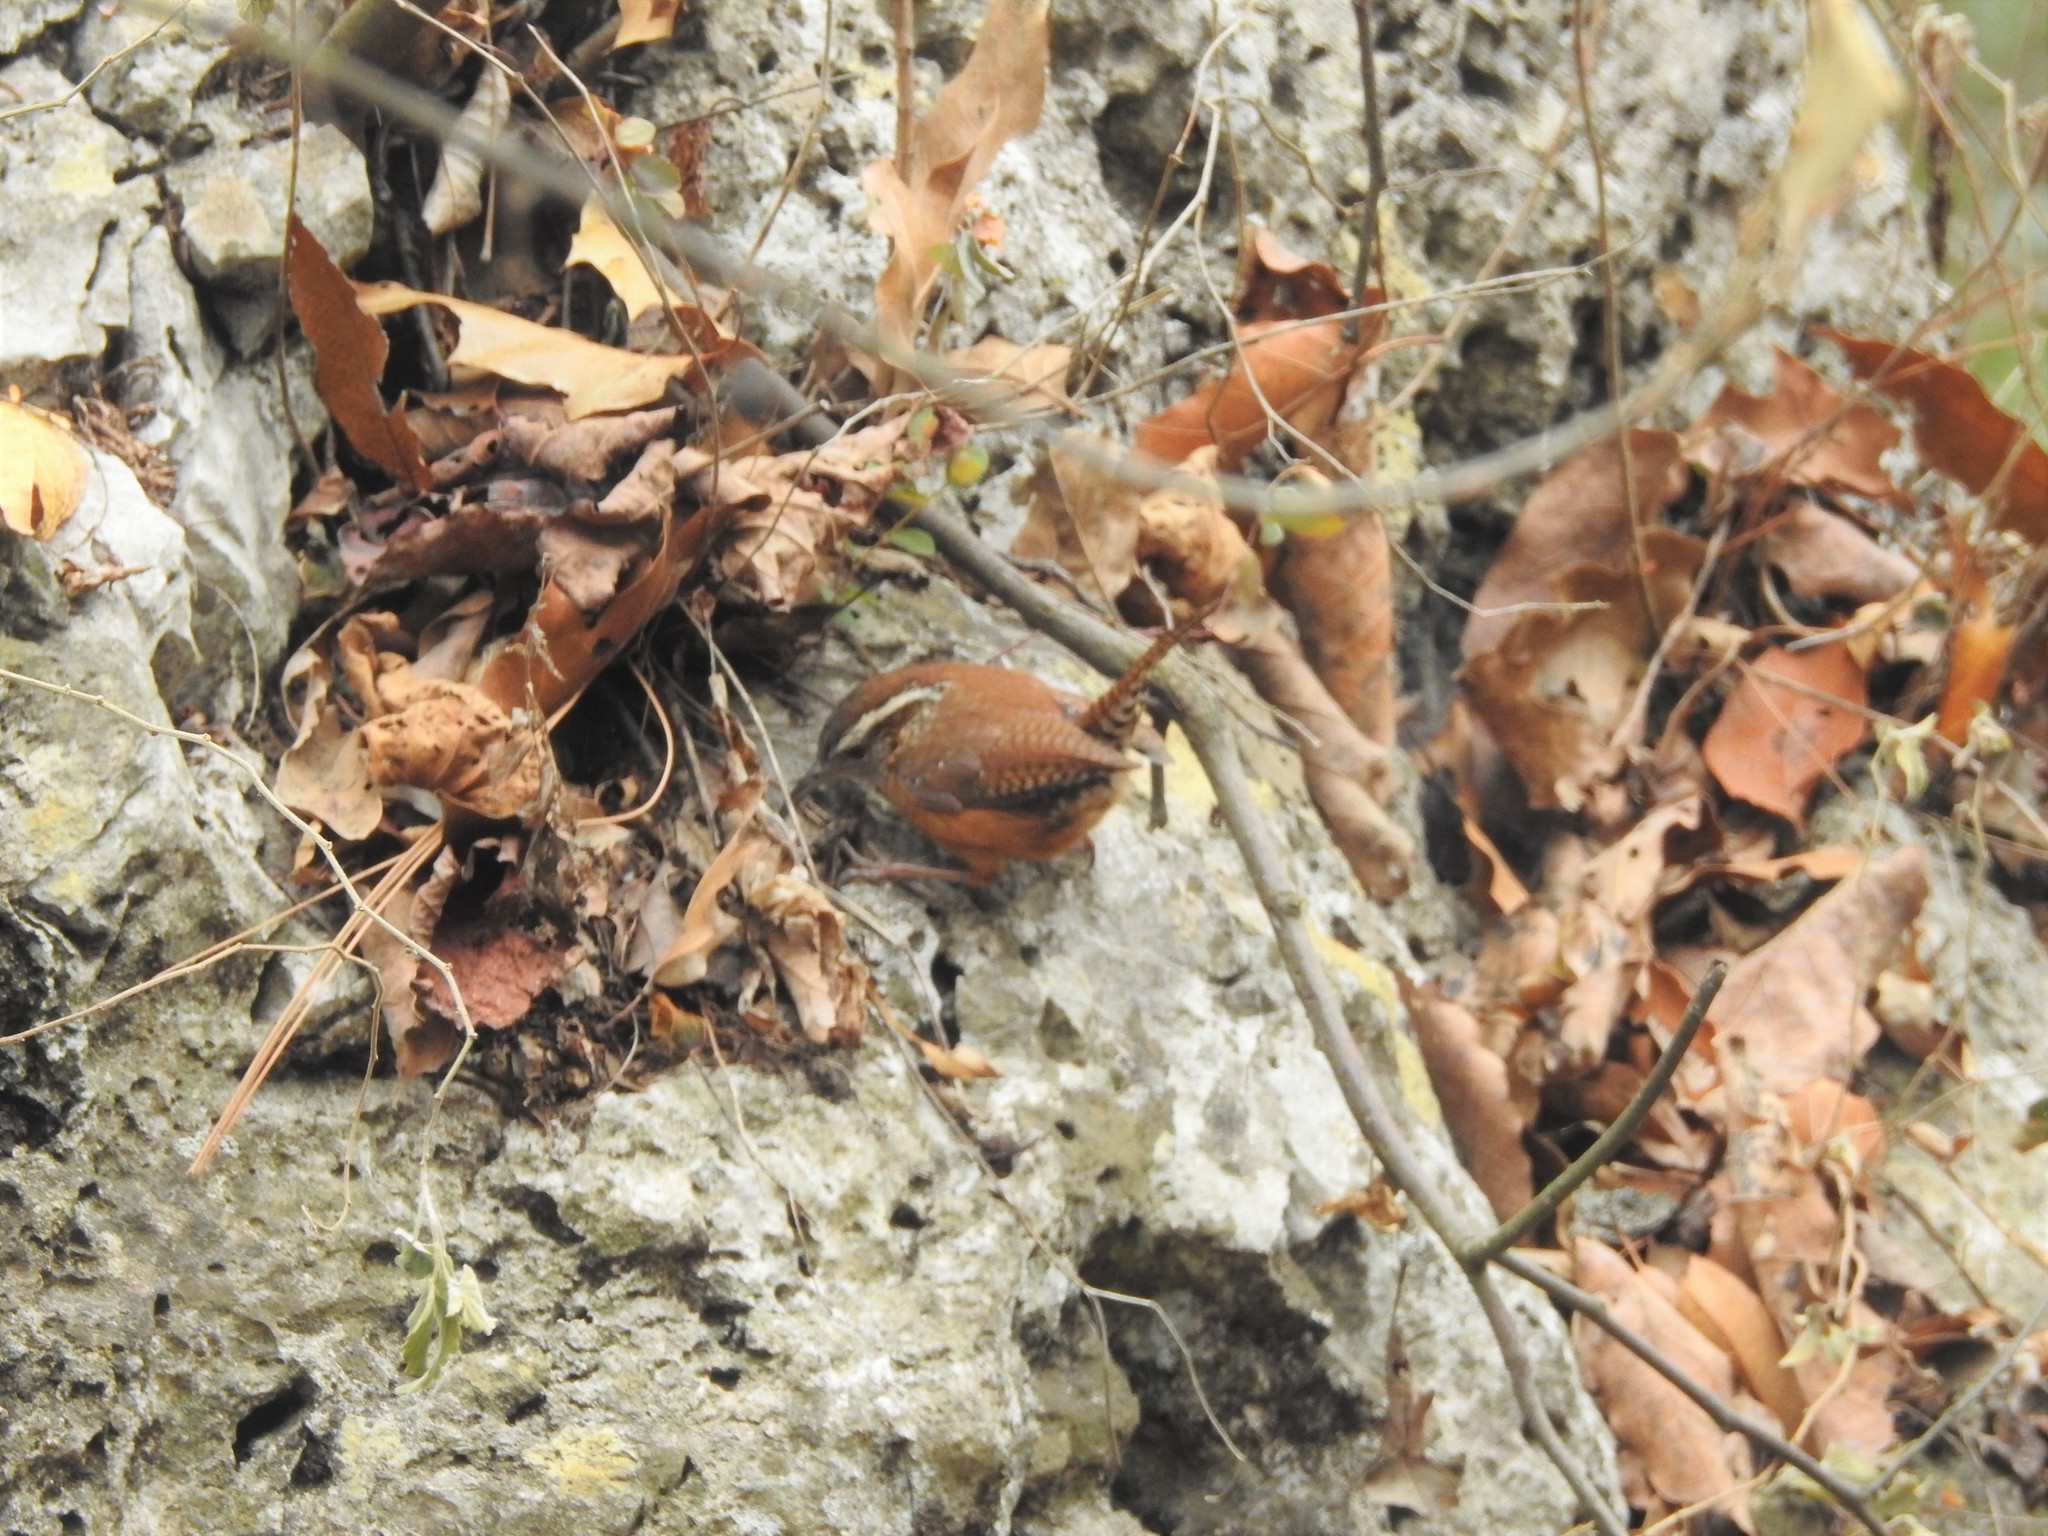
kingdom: Animalia
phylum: Chordata
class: Aves
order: Passeriformes
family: Troglodytidae
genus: Thryothorus
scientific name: Thryothorus ludovicianus
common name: Carolina wren
